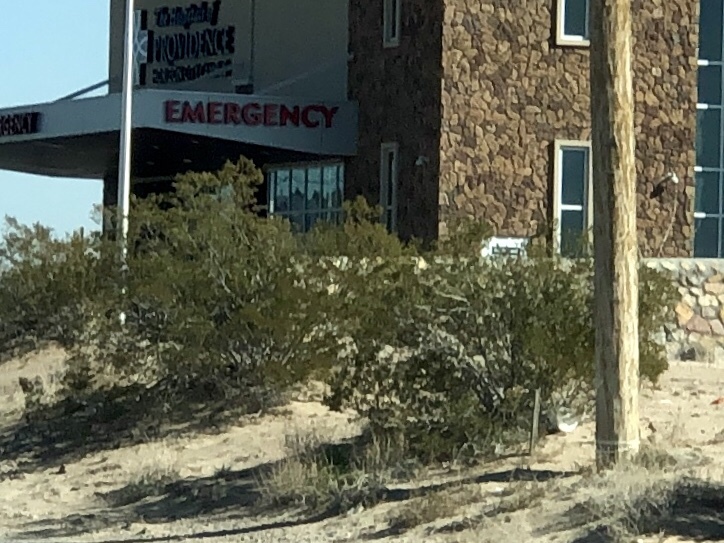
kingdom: Plantae
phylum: Tracheophyta
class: Magnoliopsida
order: Zygophyllales
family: Zygophyllaceae
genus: Larrea
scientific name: Larrea tridentata
